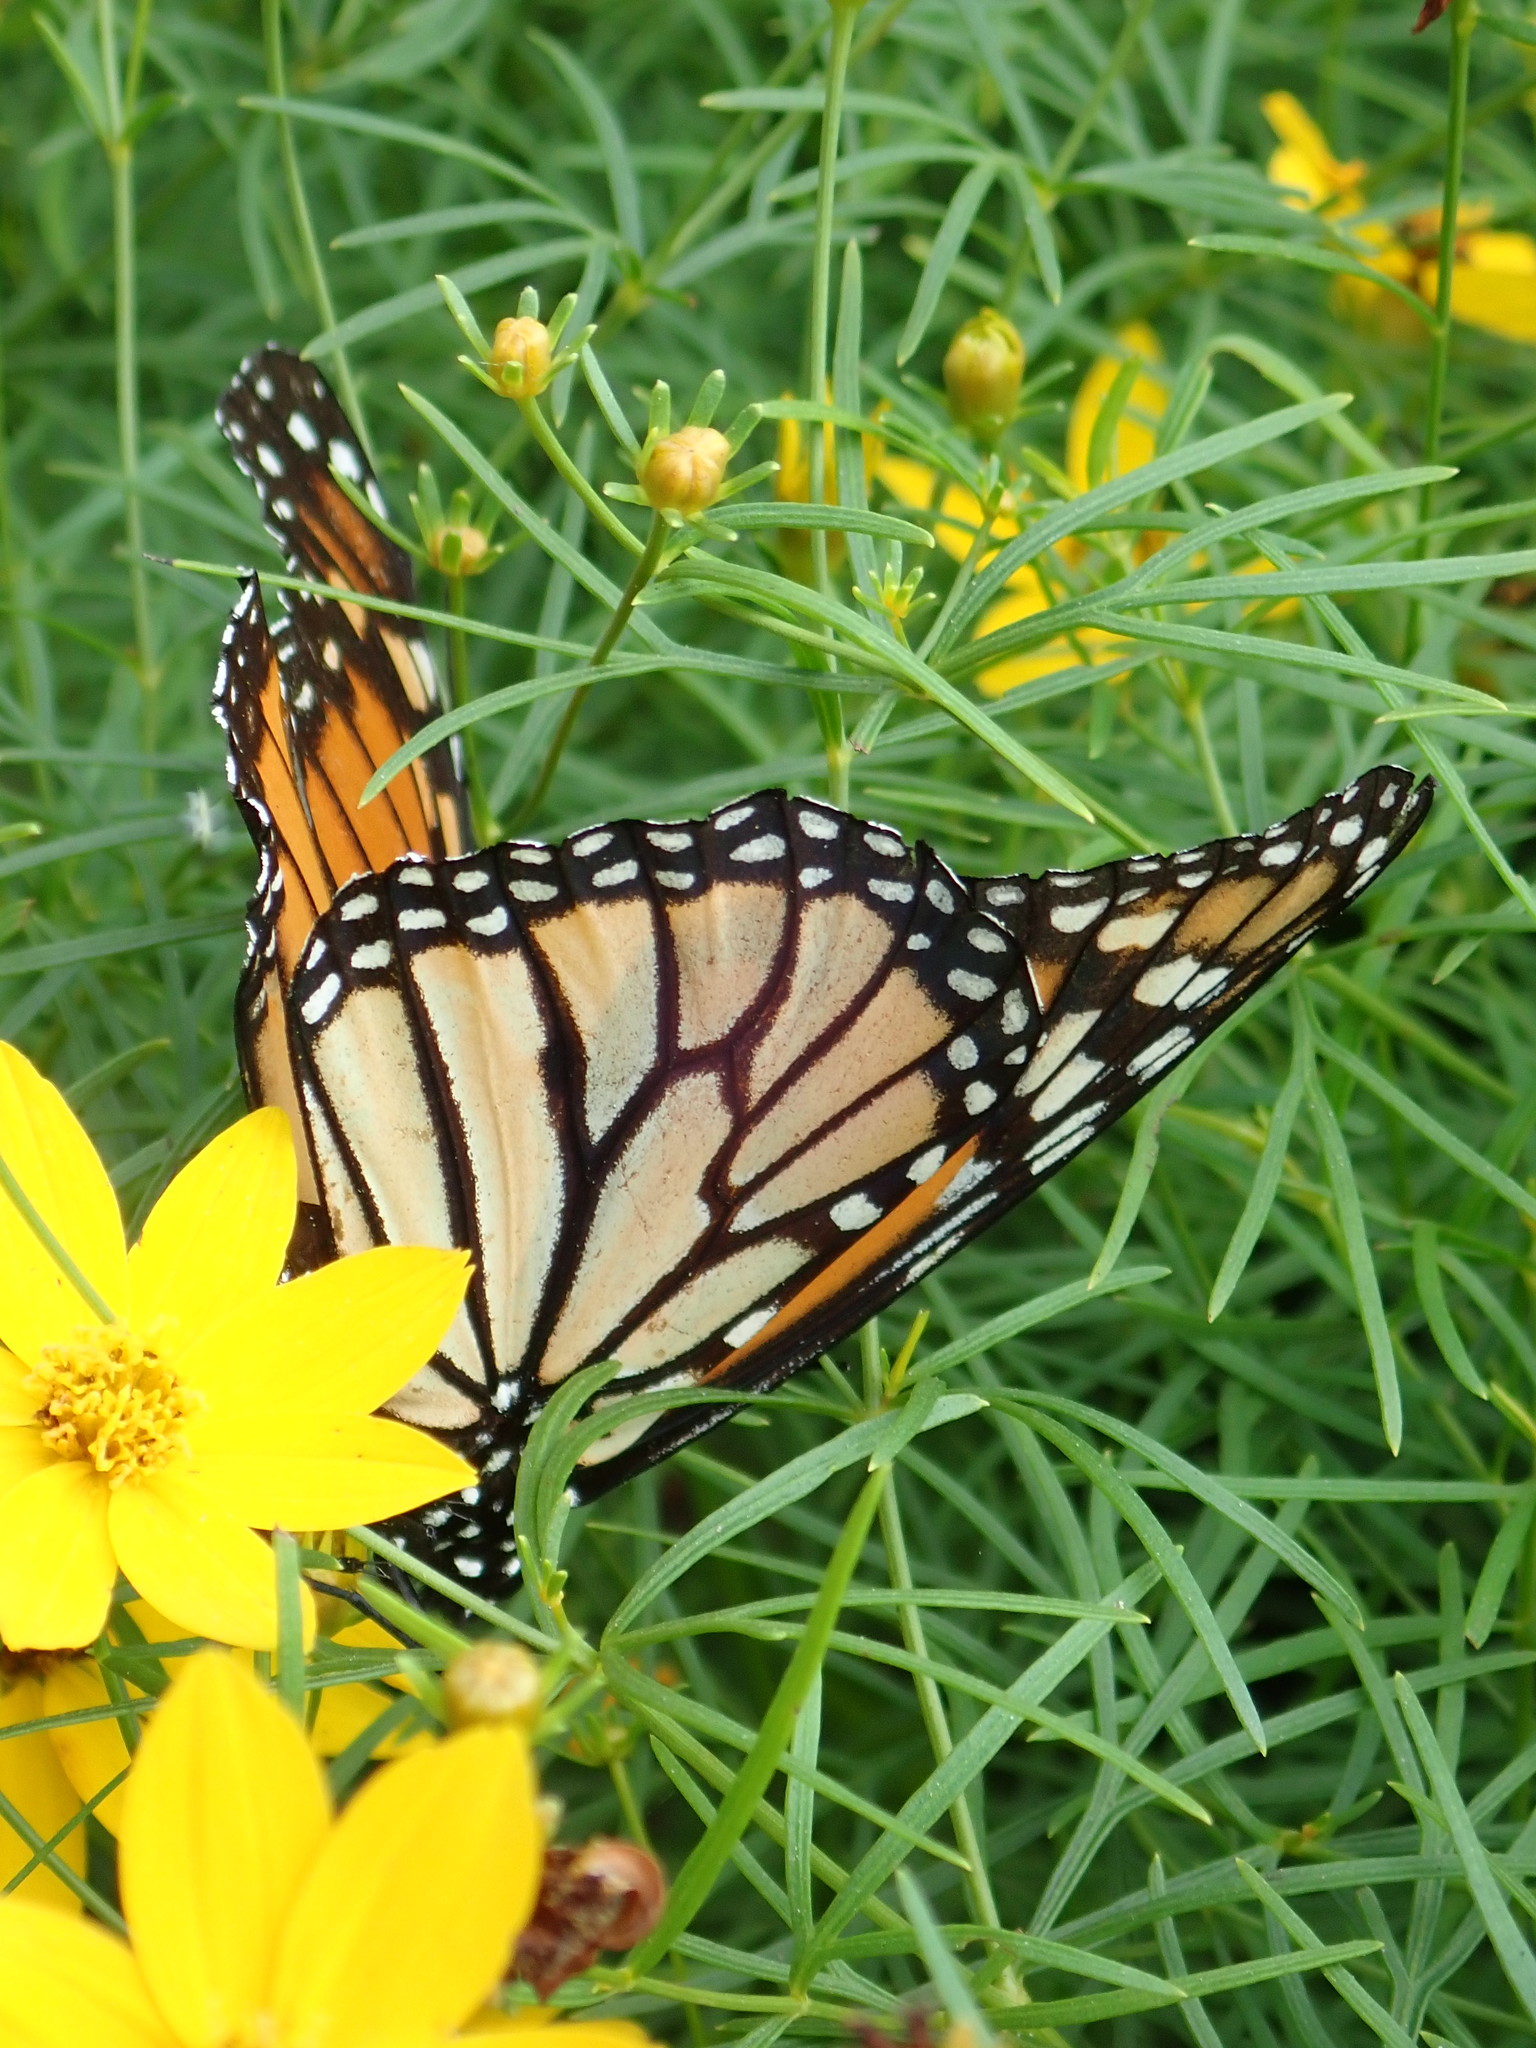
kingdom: Animalia
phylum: Arthropoda
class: Insecta
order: Lepidoptera
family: Nymphalidae
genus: Danaus
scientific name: Danaus plexippus
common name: Monarch
